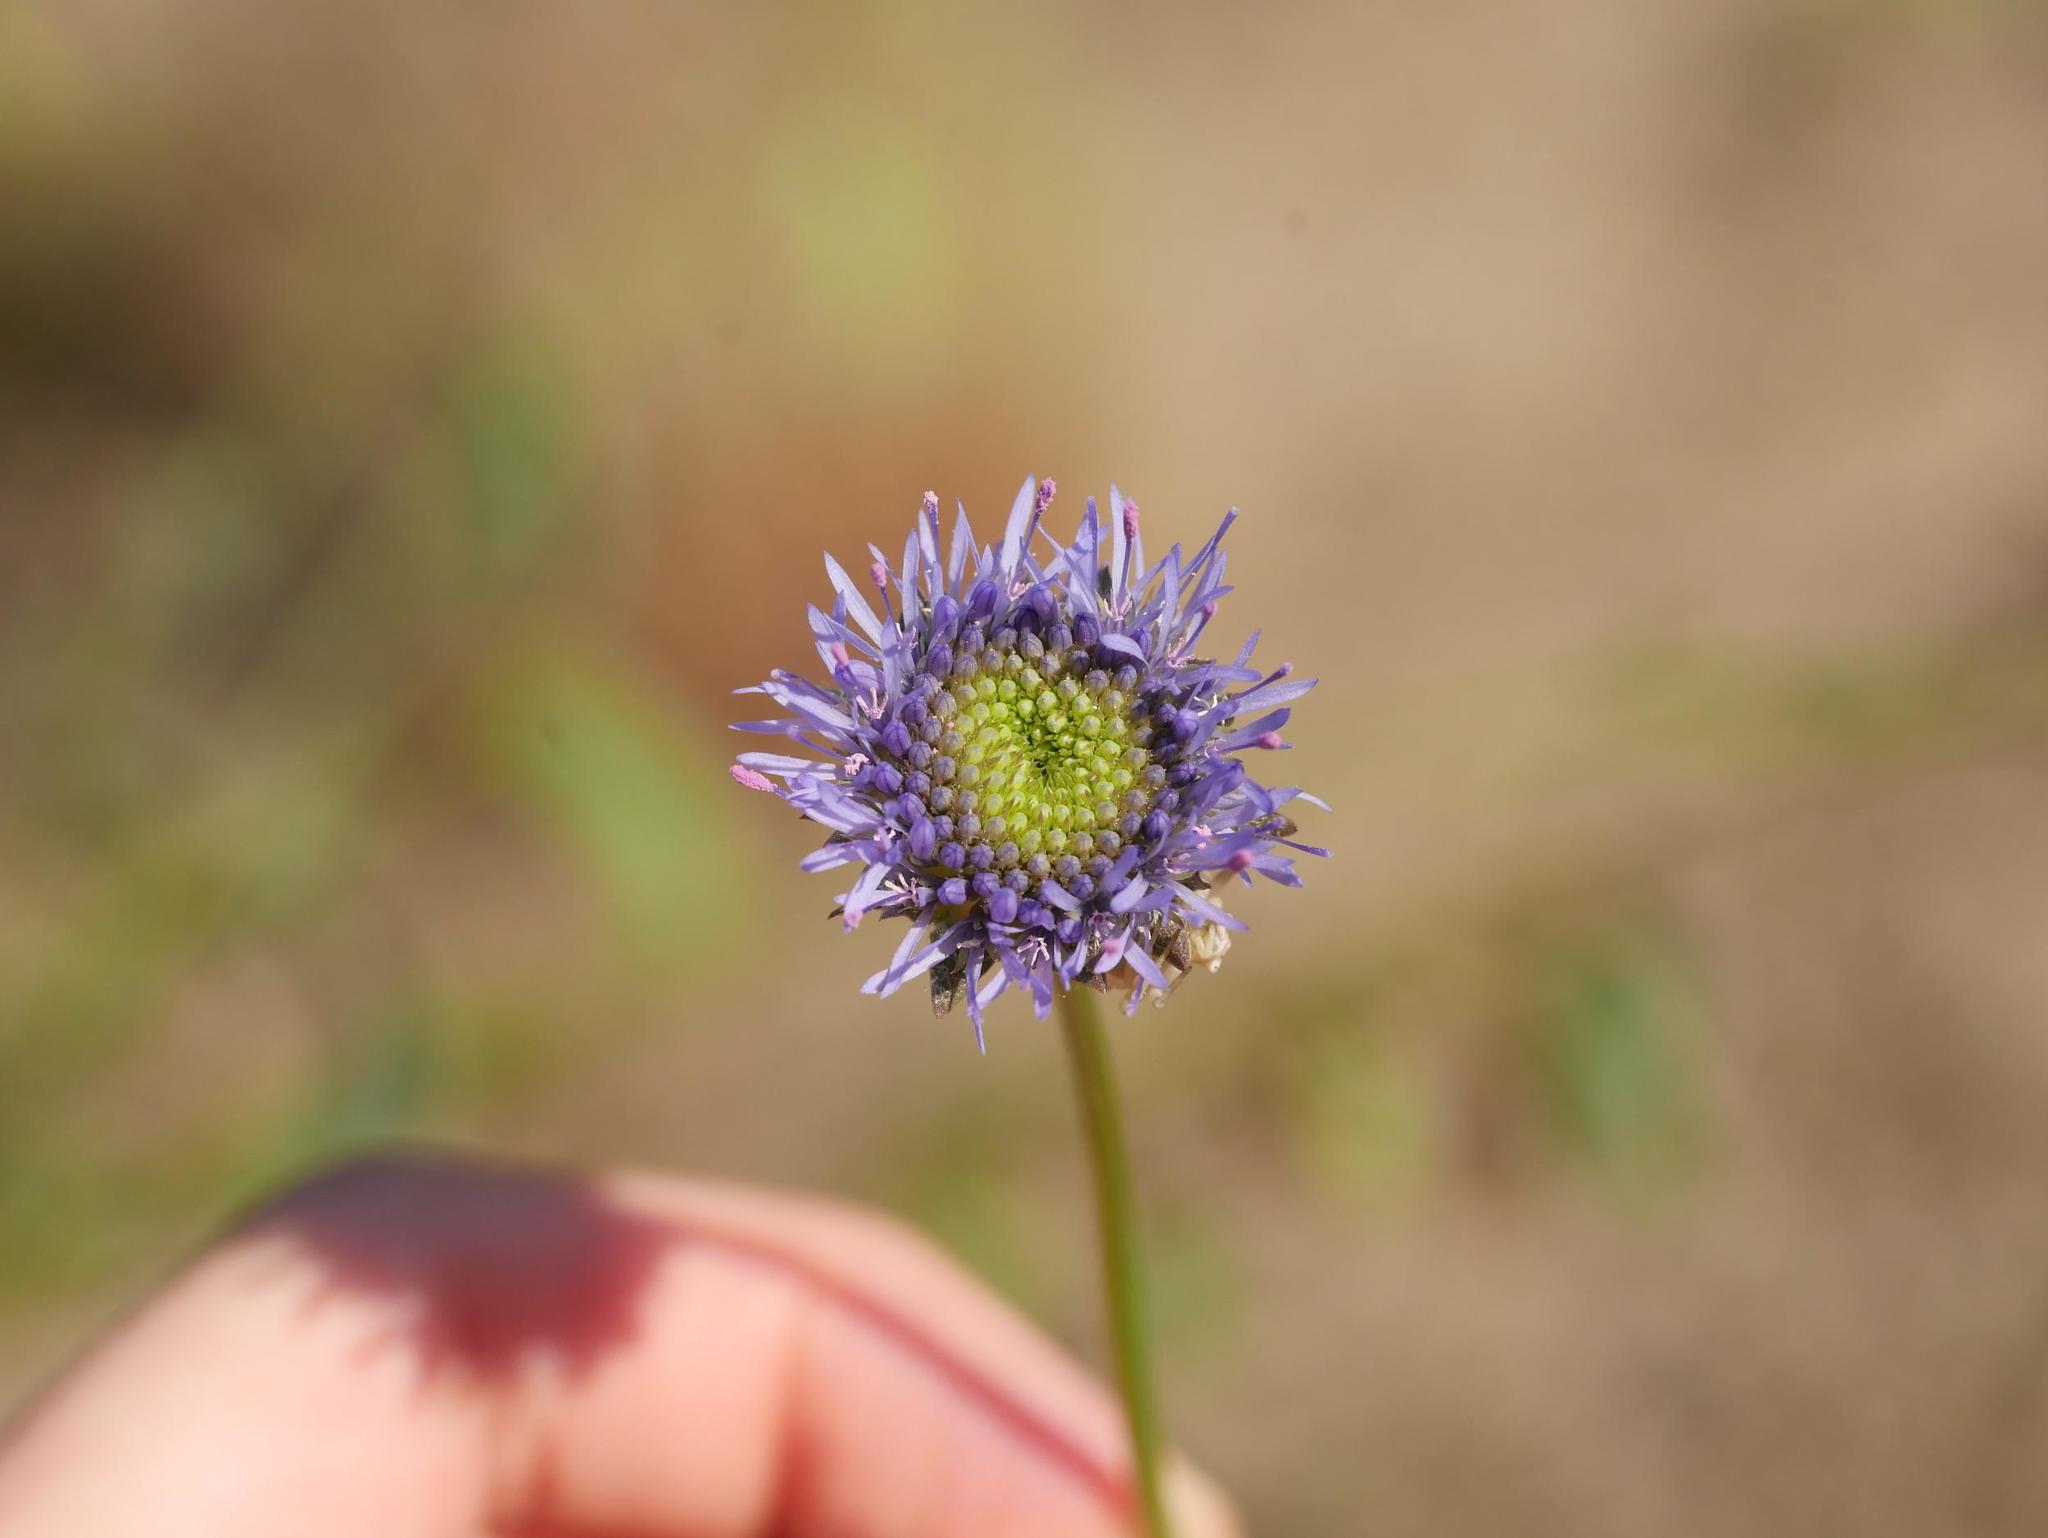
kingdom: Plantae
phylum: Tracheophyta
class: Magnoliopsida
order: Asterales
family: Campanulaceae
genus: Jasione
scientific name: Jasione montana
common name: Sheep's-bit
